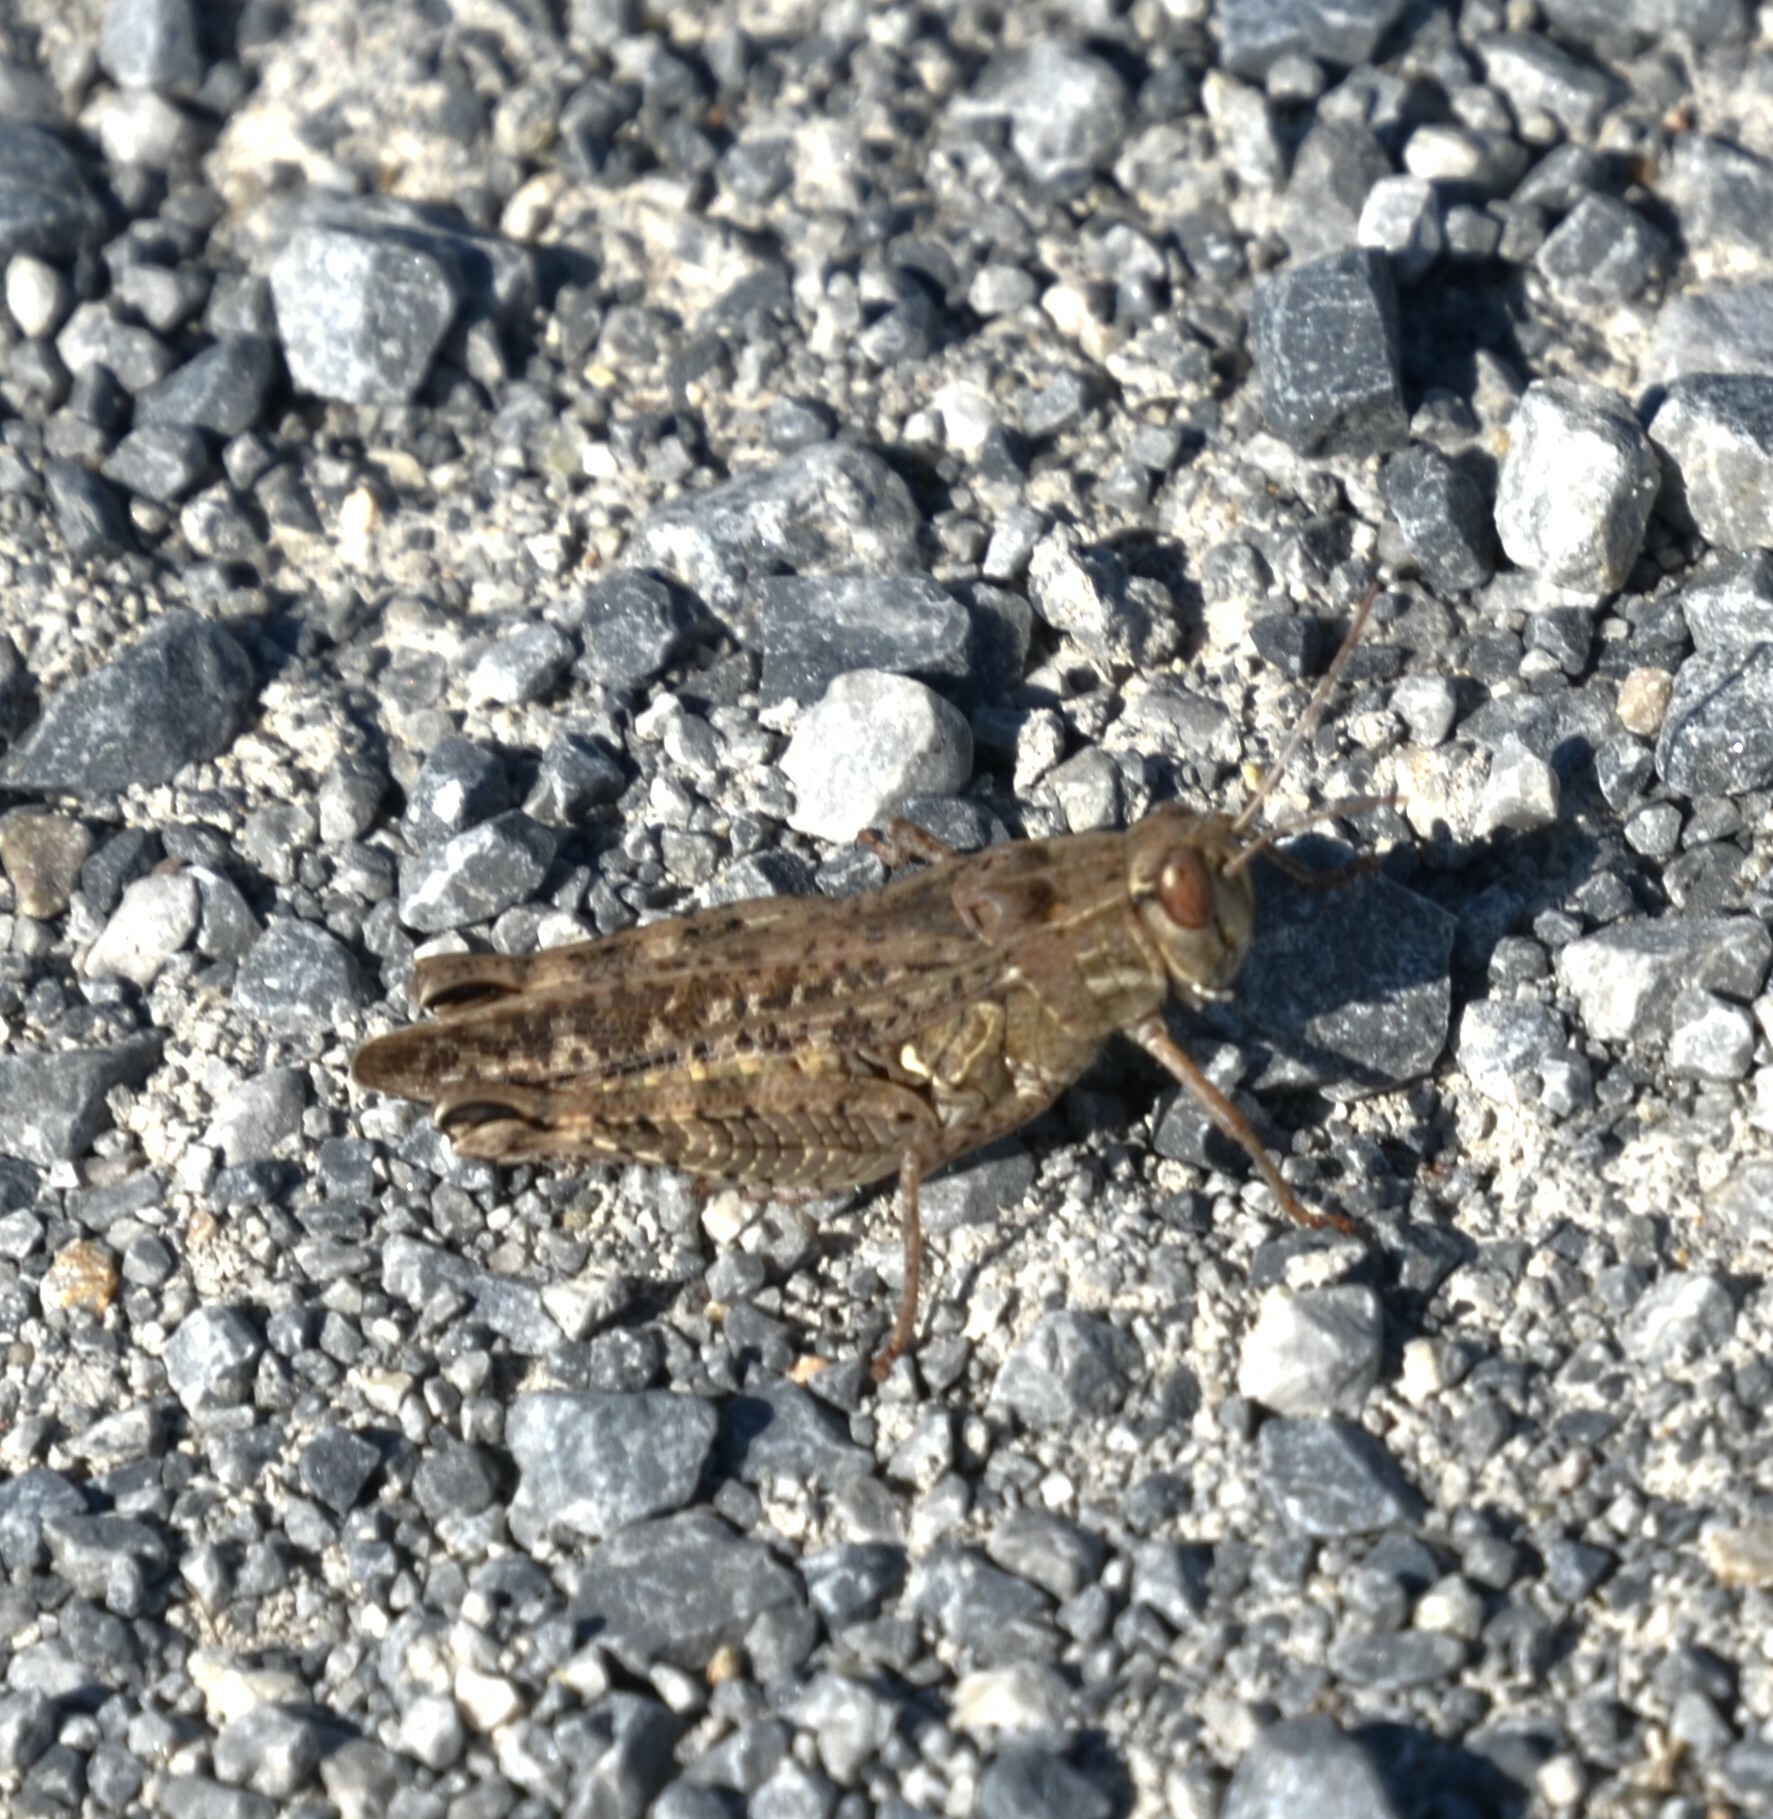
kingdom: Animalia
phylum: Arthropoda
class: Insecta
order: Orthoptera
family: Acrididae
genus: Calliptamus
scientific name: Calliptamus italicus
